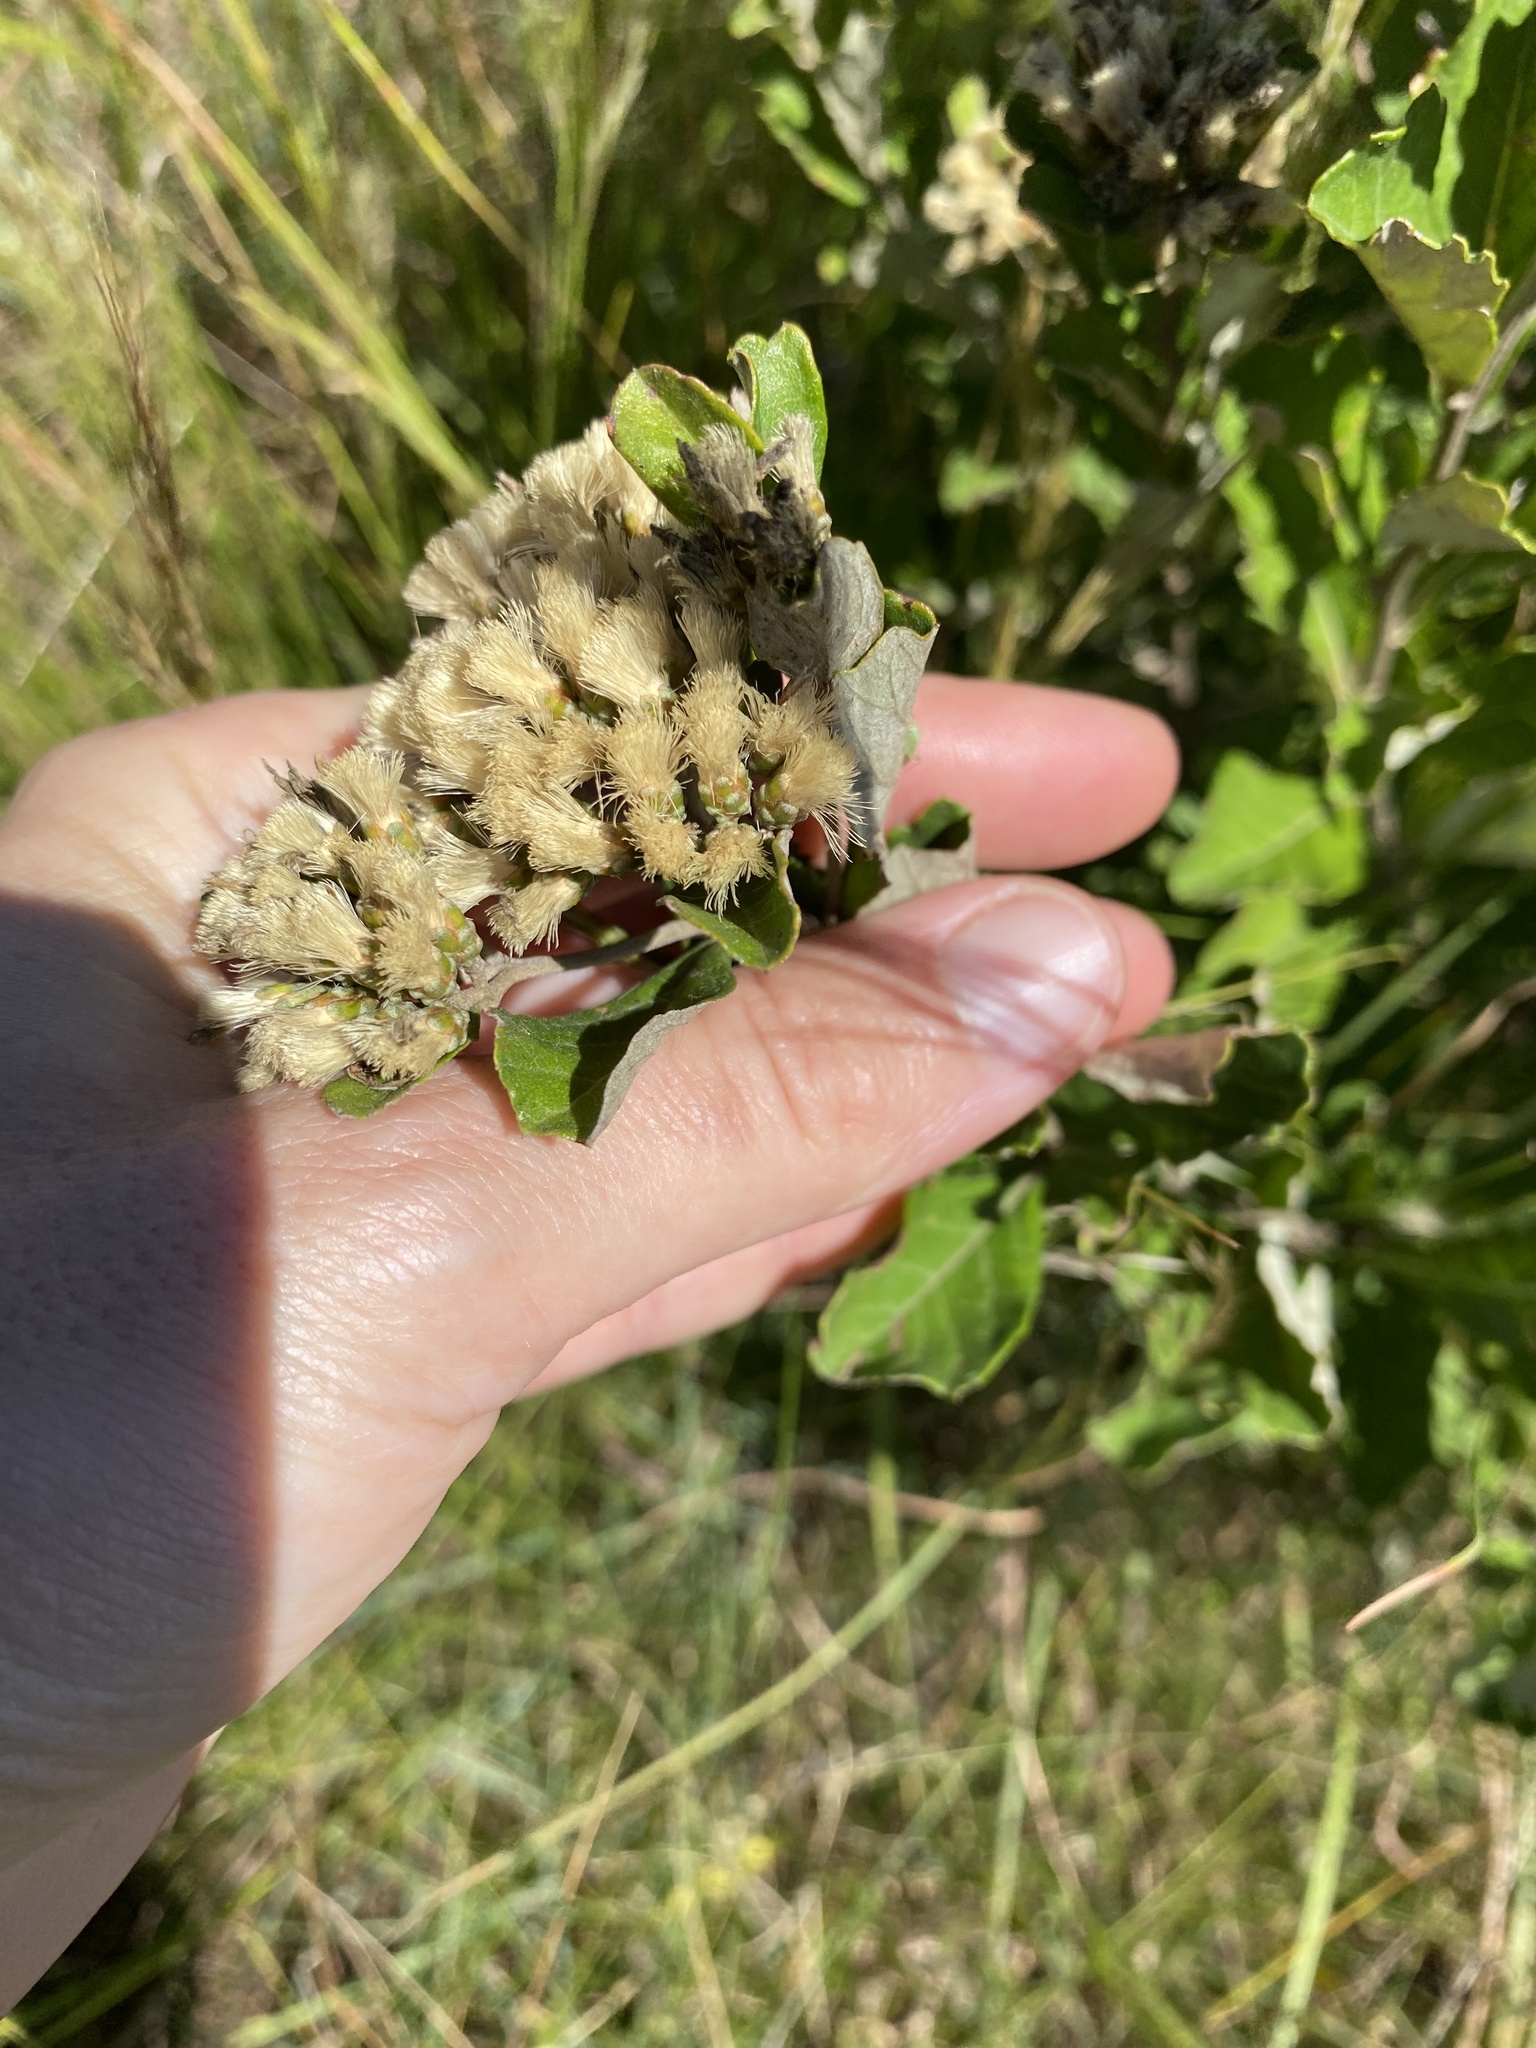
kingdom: Plantae
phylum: Tracheophyta
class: Magnoliopsida
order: Asterales
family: Asteraceae
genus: Gymnanthemum
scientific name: Gymnanthemum corymbosum
